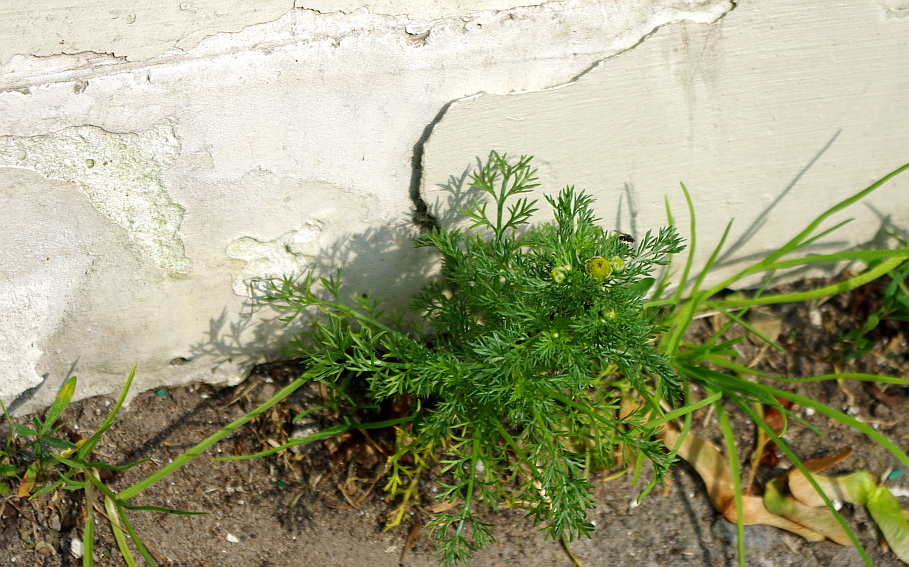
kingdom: Plantae
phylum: Tracheophyta
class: Magnoliopsida
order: Asterales
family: Asteraceae
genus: Matricaria
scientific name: Matricaria discoidea
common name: Disc mayweed
